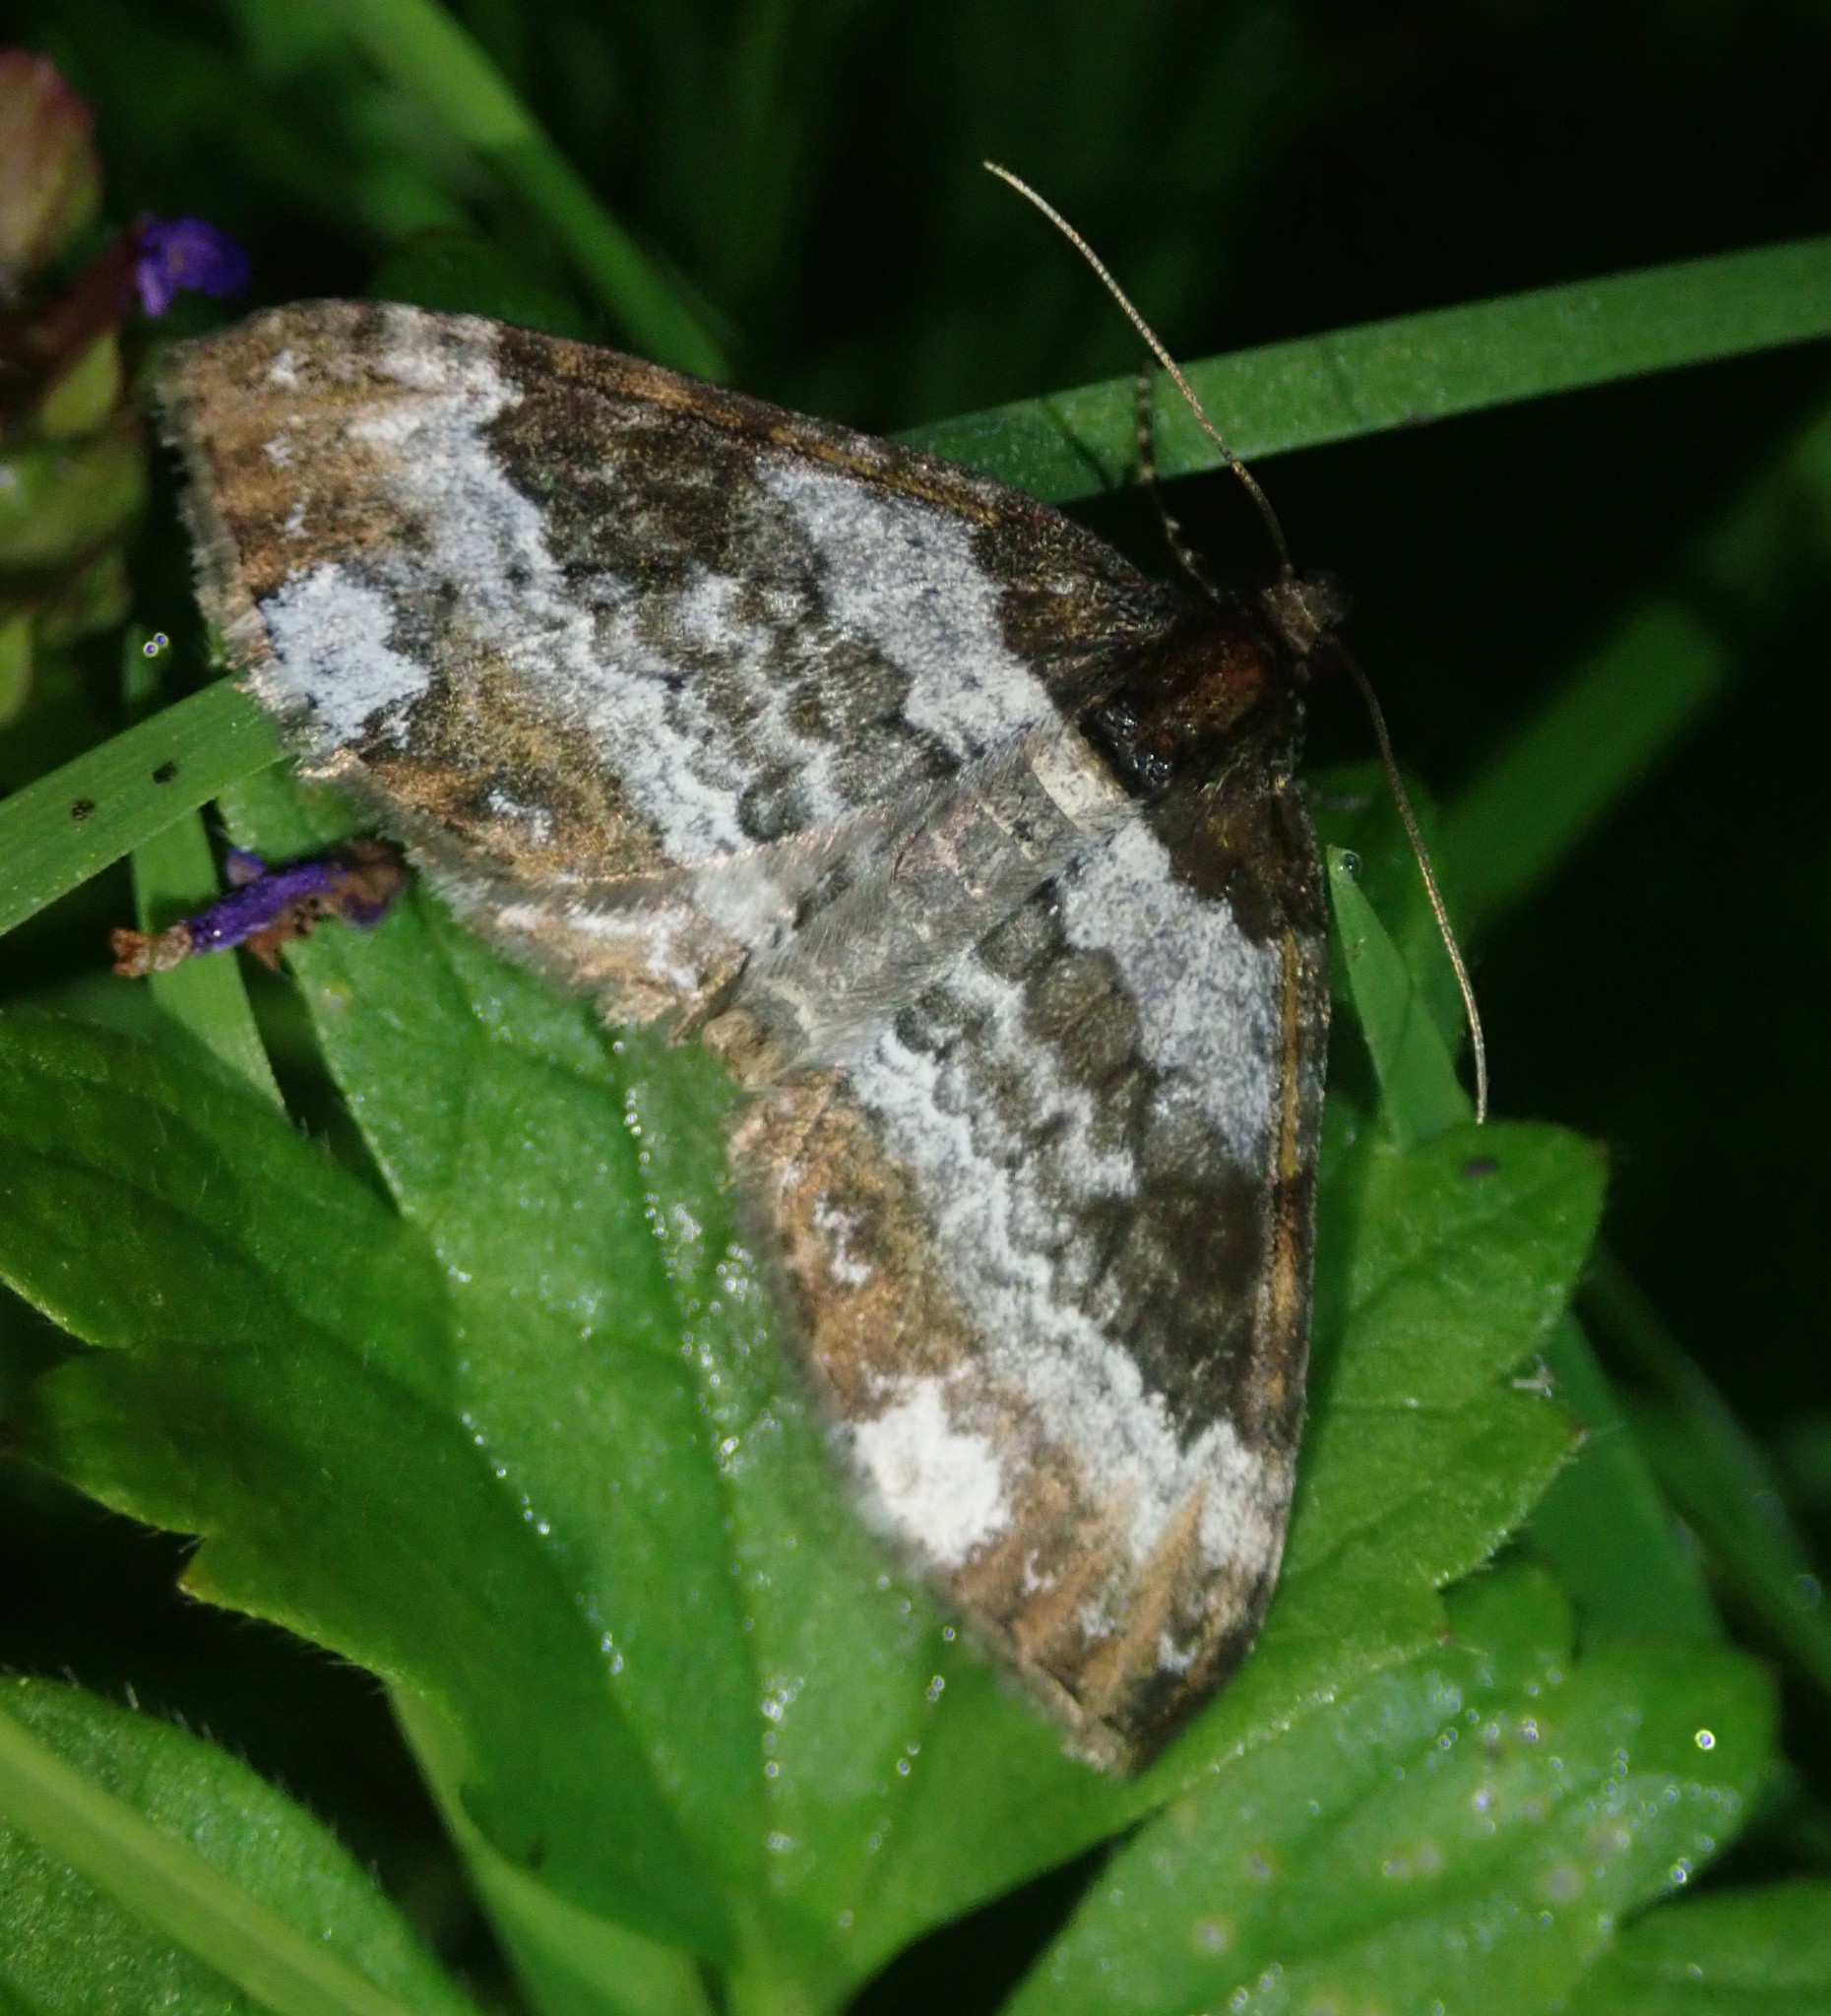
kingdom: Animalia
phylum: Arthropoda
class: Insecta
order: Lepidoptera
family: Geometridae
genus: Melanthia
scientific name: Melanthia procellata
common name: Pretty chalk carpet
